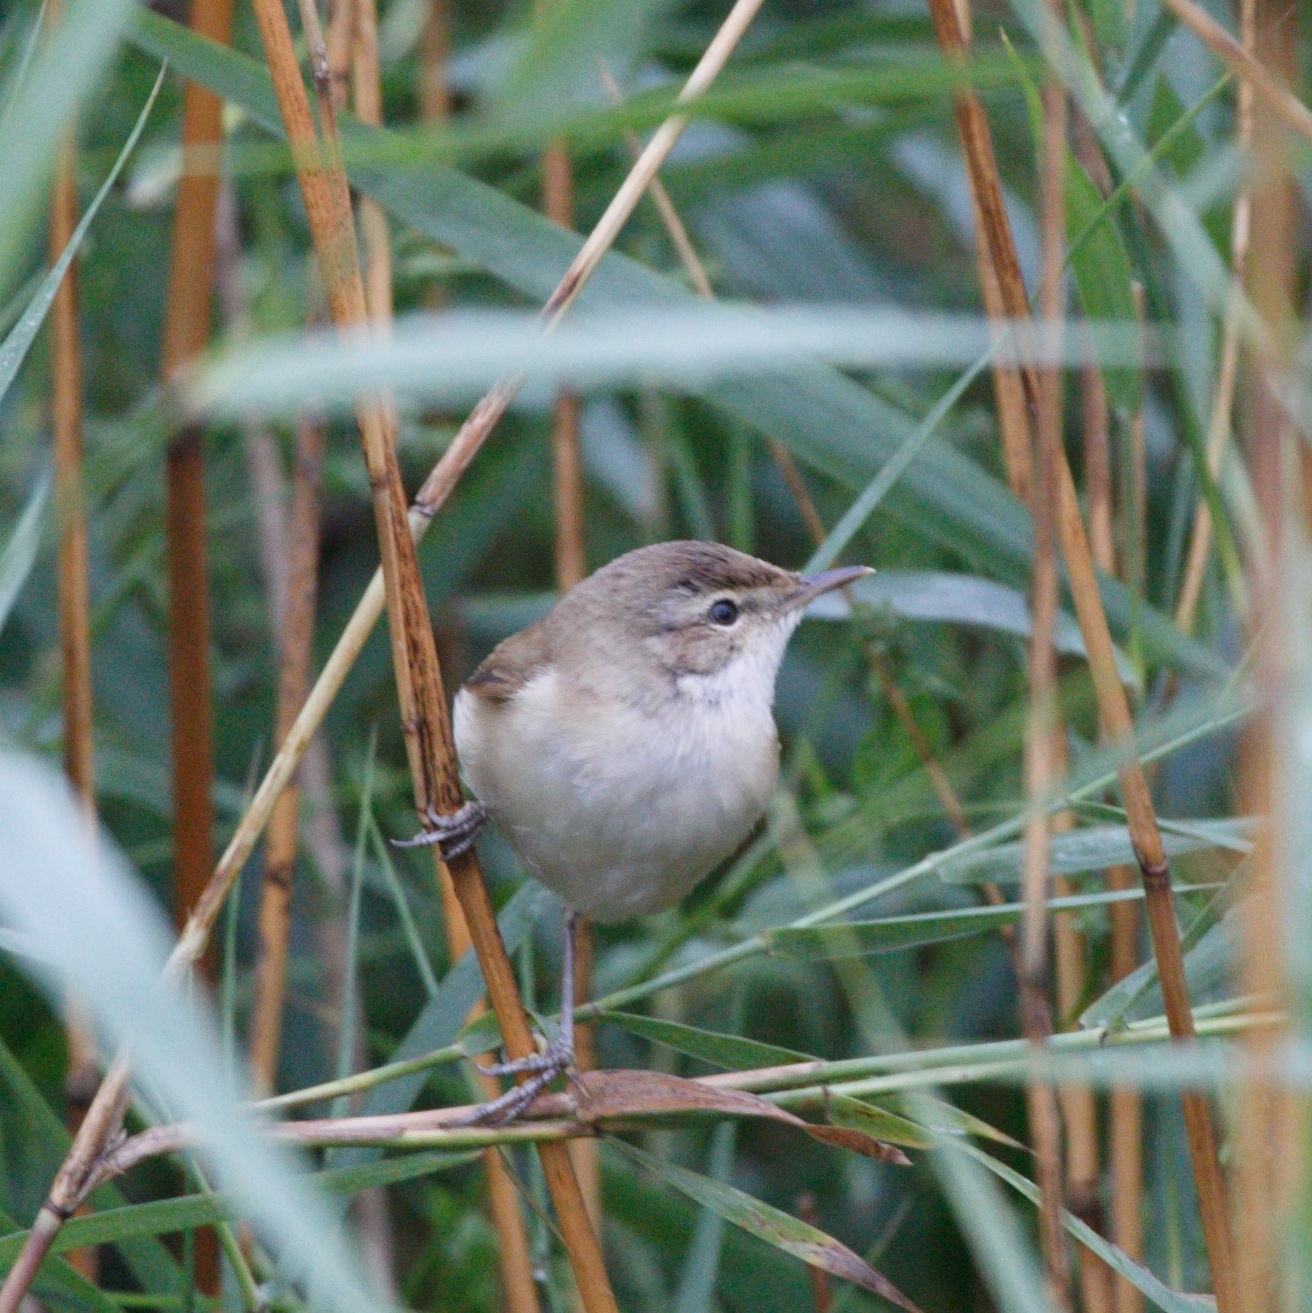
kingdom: Animalia
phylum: Chordata
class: Aves
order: Passeriformes
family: Acrocephalidae
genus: Acrocephalus
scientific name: Acrocephalus agricola
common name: Paddyfield warbler
